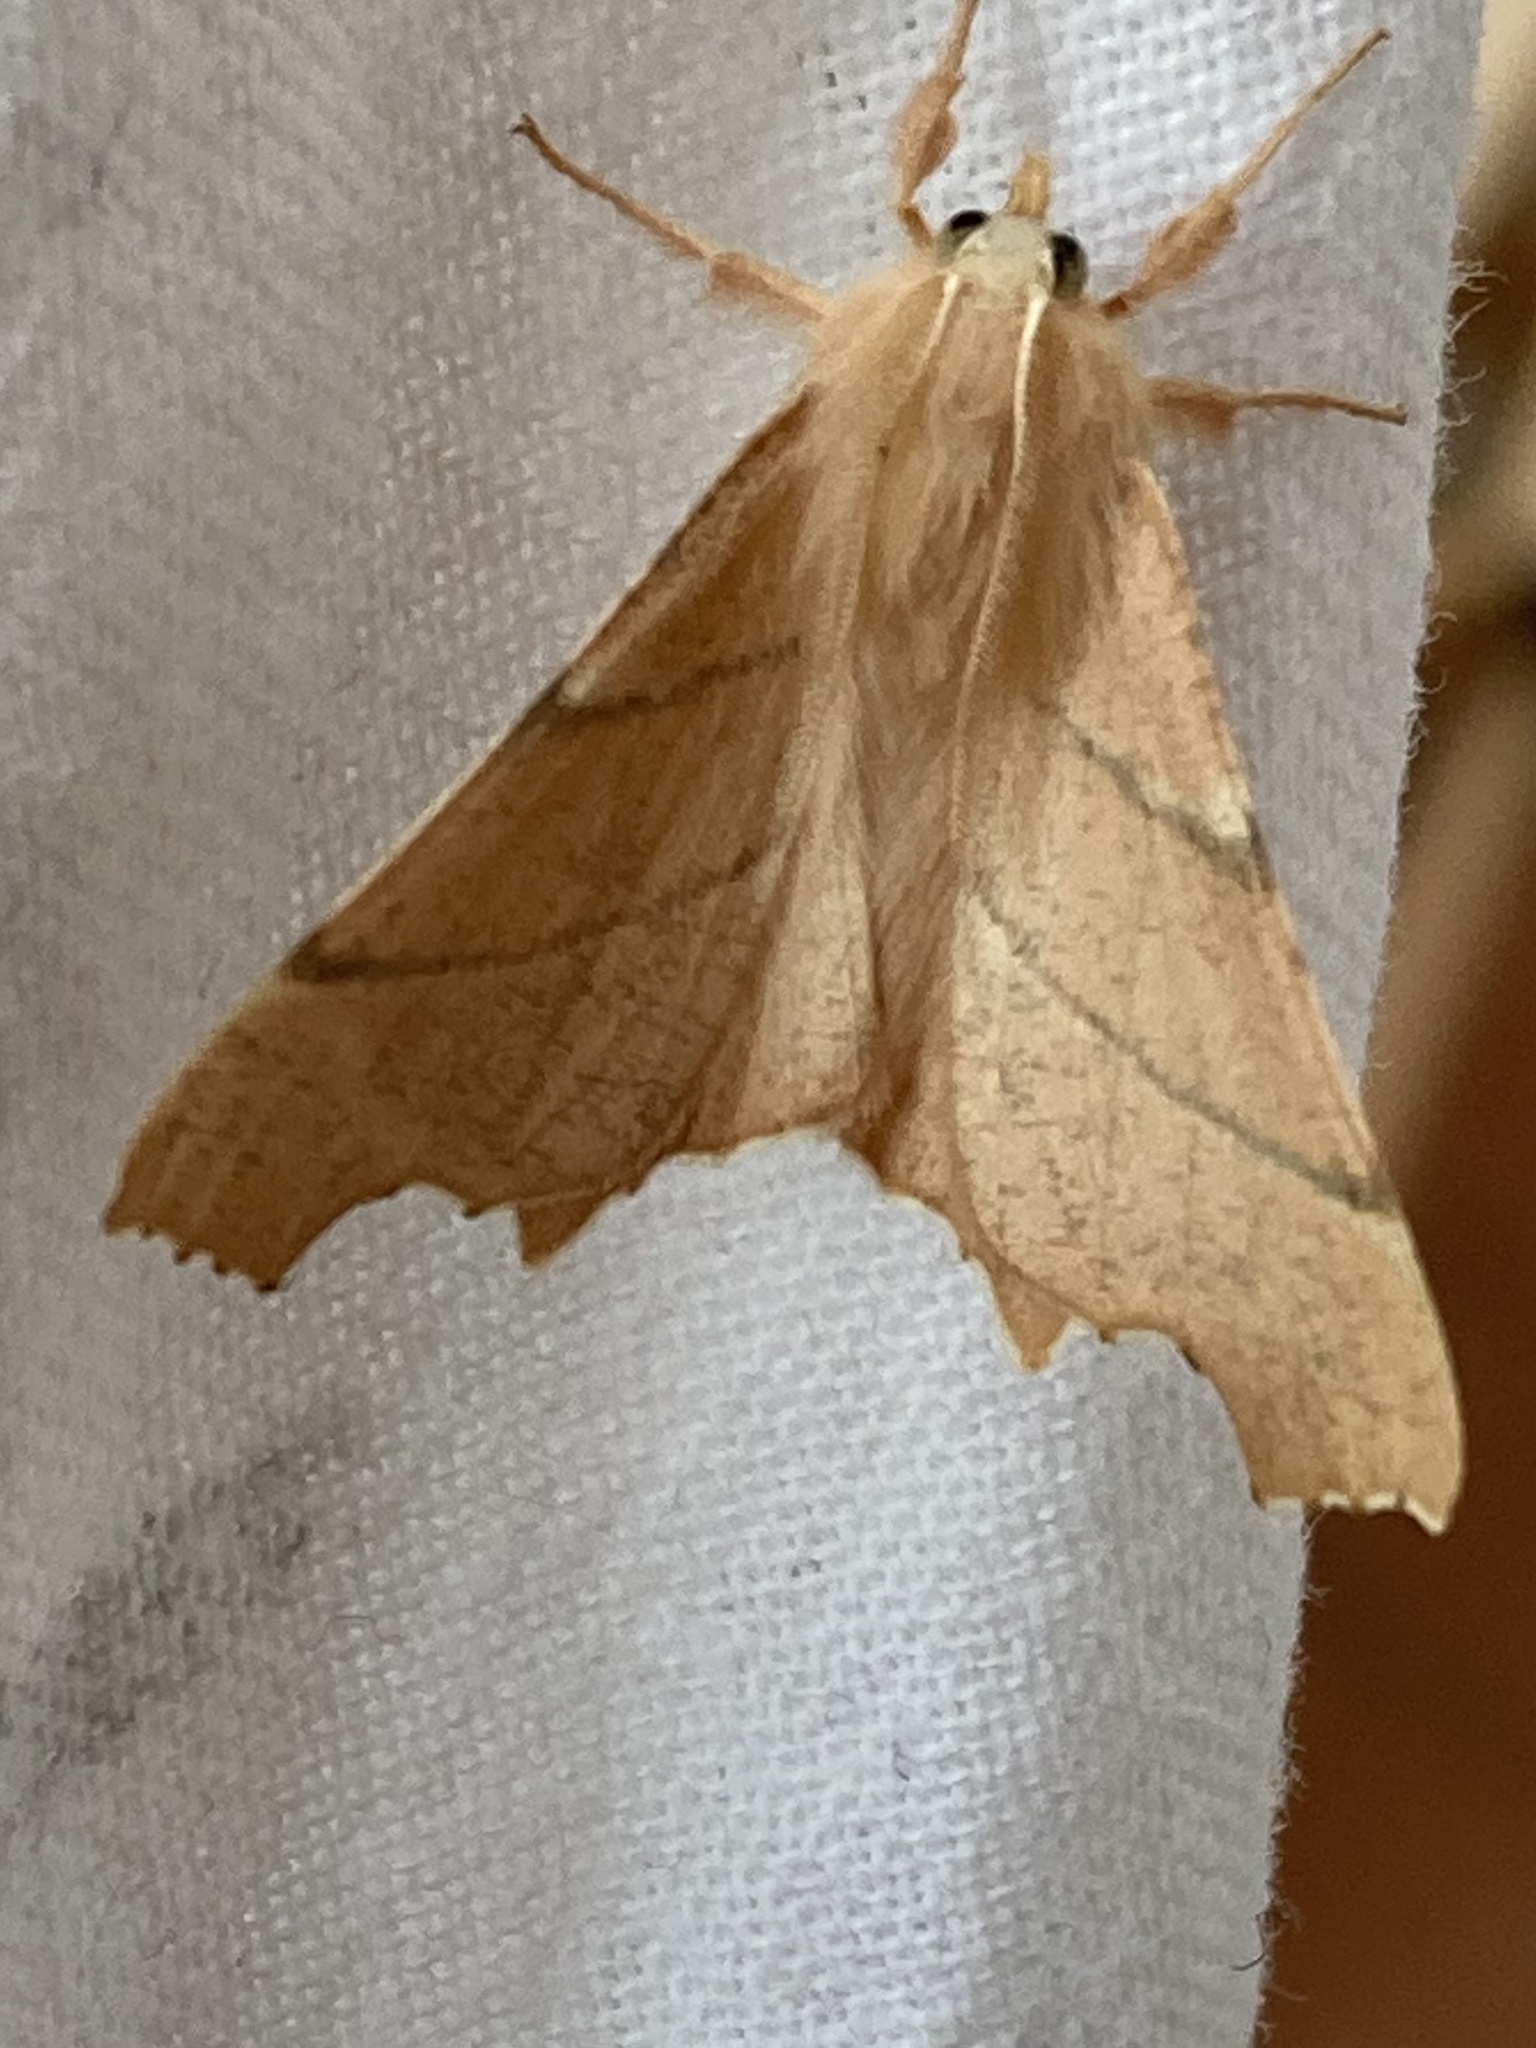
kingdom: Animalia
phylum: Arthropoda
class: Insecta
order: Lepidoptera
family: Geometridae
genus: Ennomos
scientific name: Ennomos quercaria
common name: Clouded august thorn
